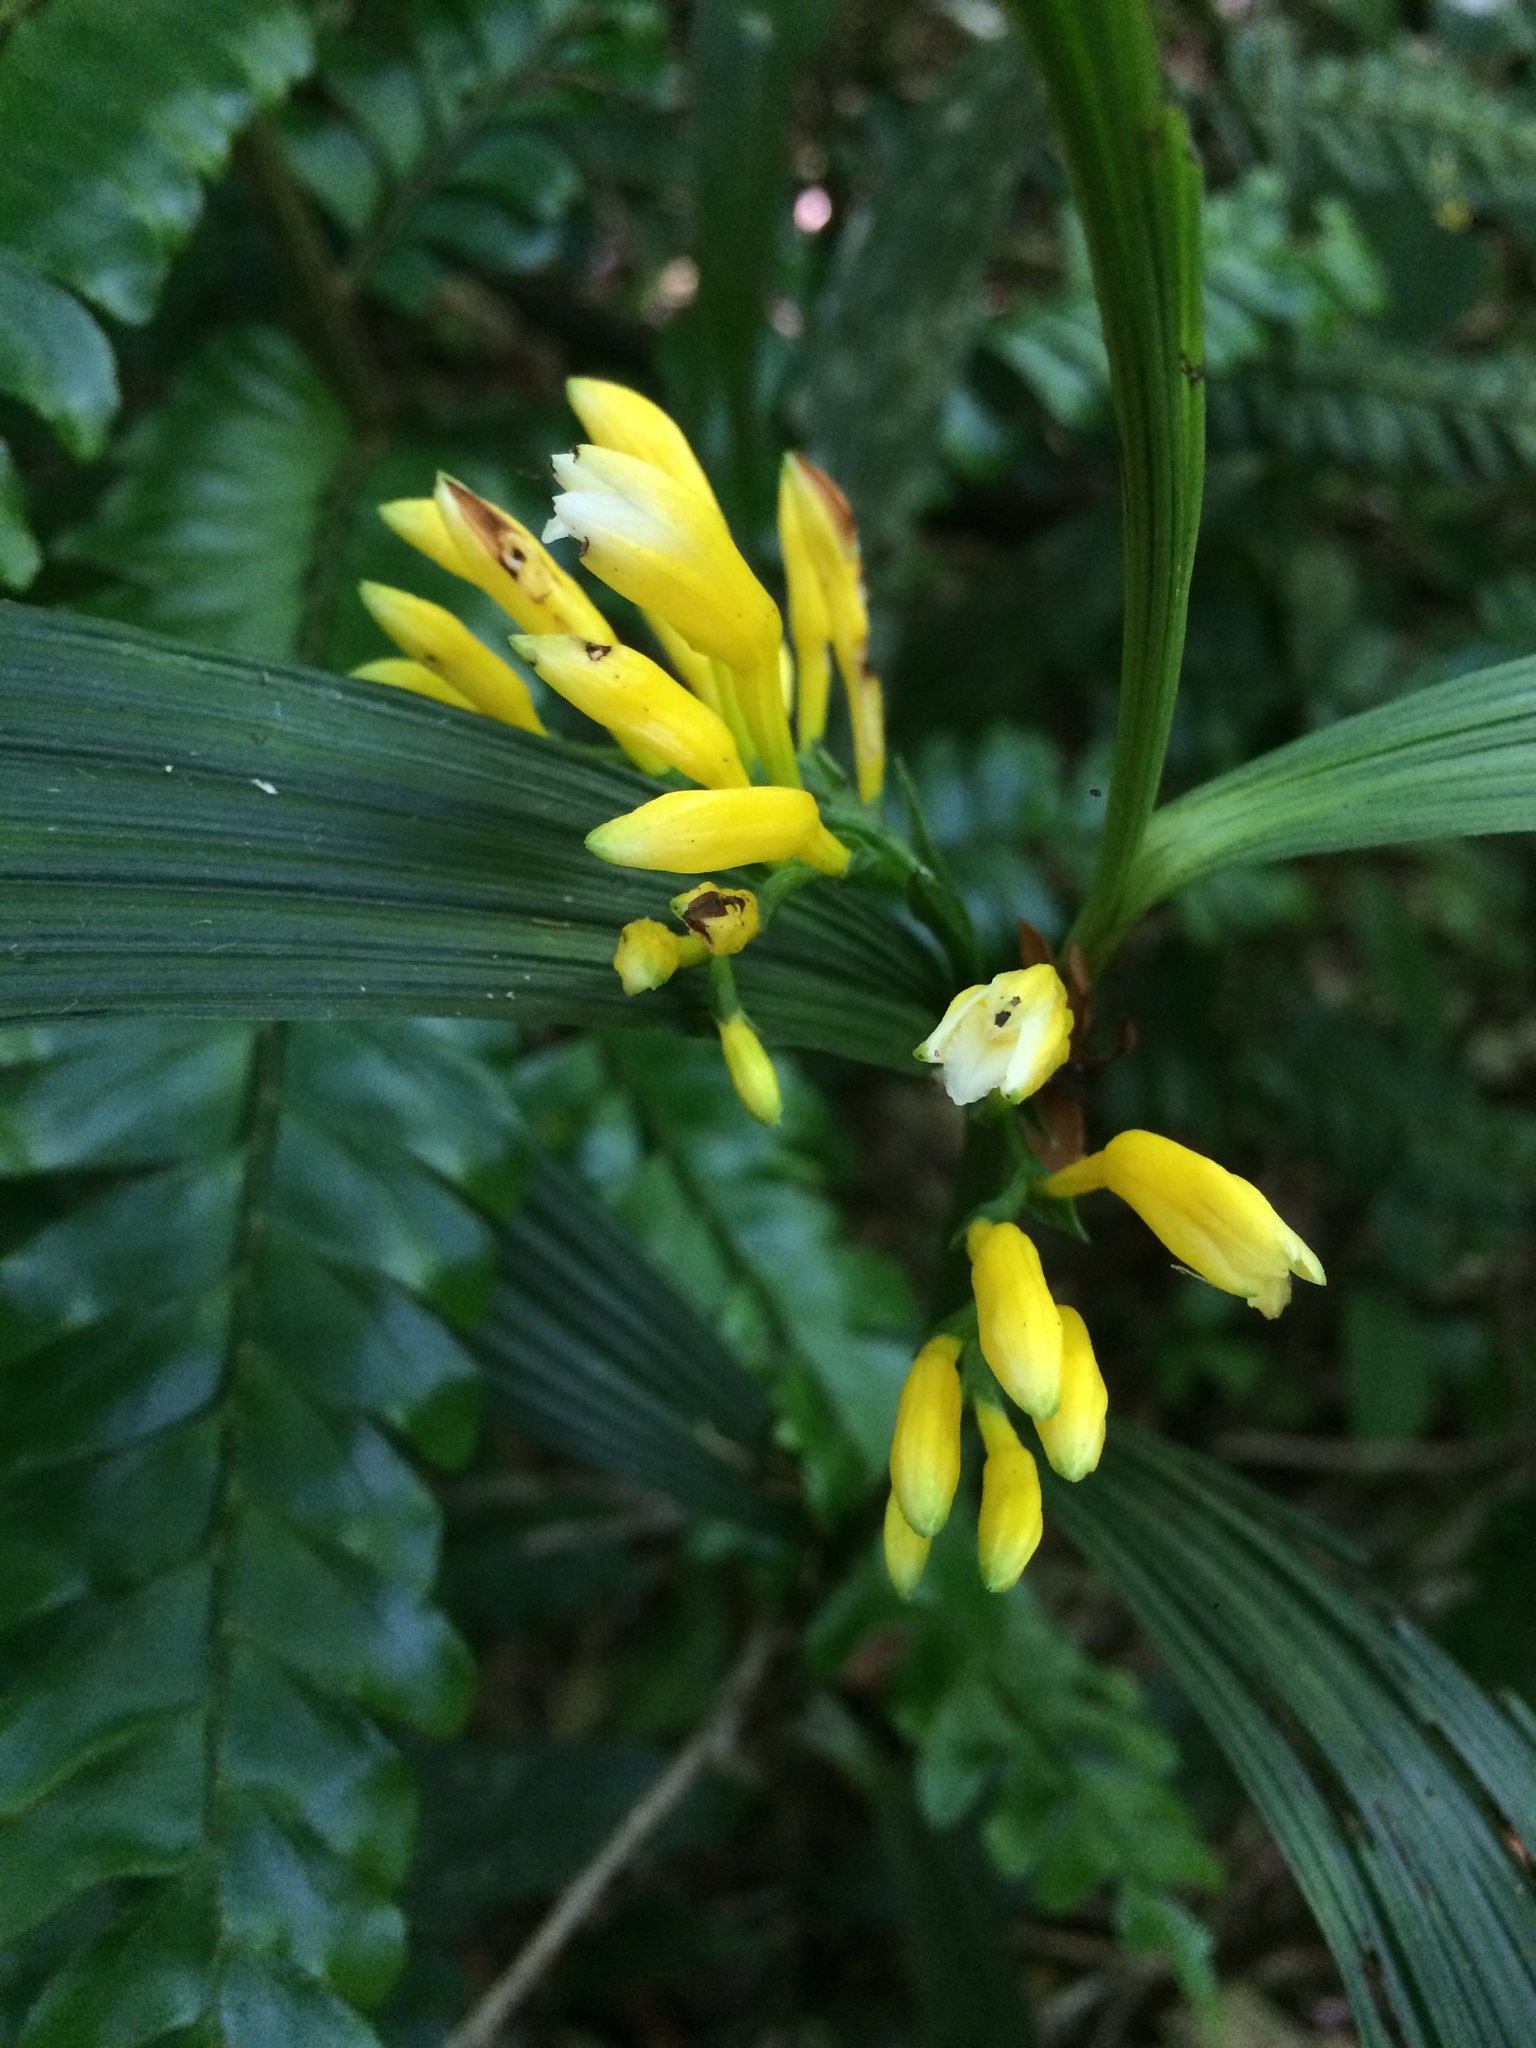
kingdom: Plantae
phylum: Tracheophyta
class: Liliopsida
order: Asparagales
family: Orchidaceae
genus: Corymborkis
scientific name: Corymborkis flava
